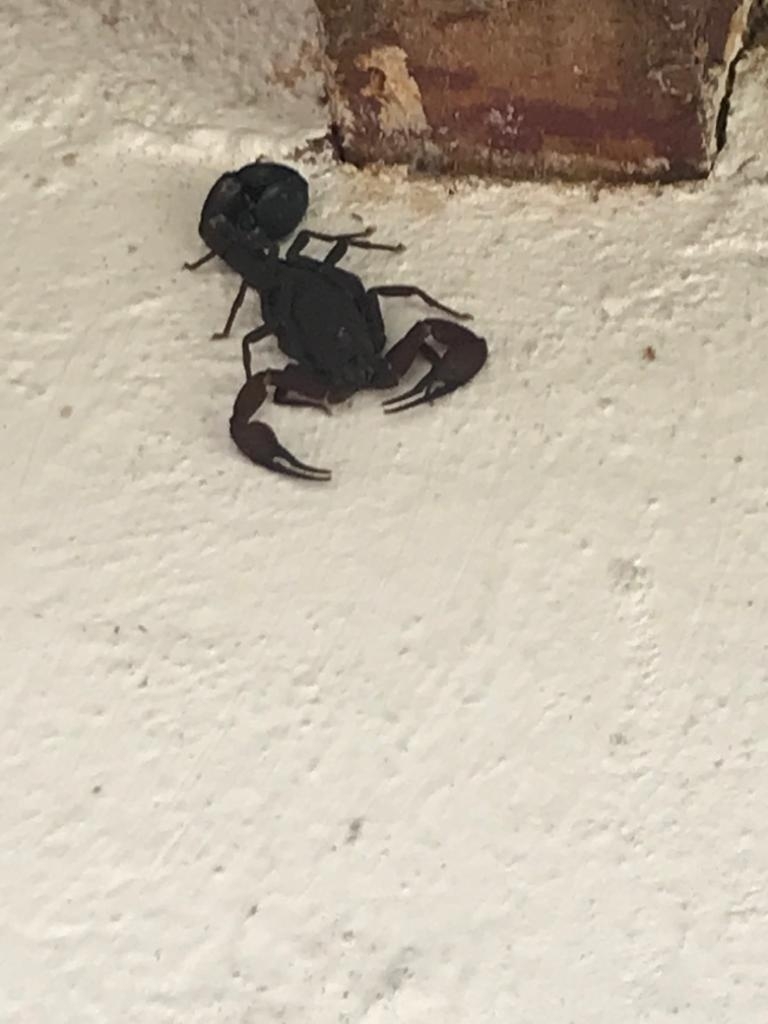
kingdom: Animalia
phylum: Arthropoda
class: Arachnida
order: Scorpiones
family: Buthidae
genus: Tityus
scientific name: Tityus sabineae
